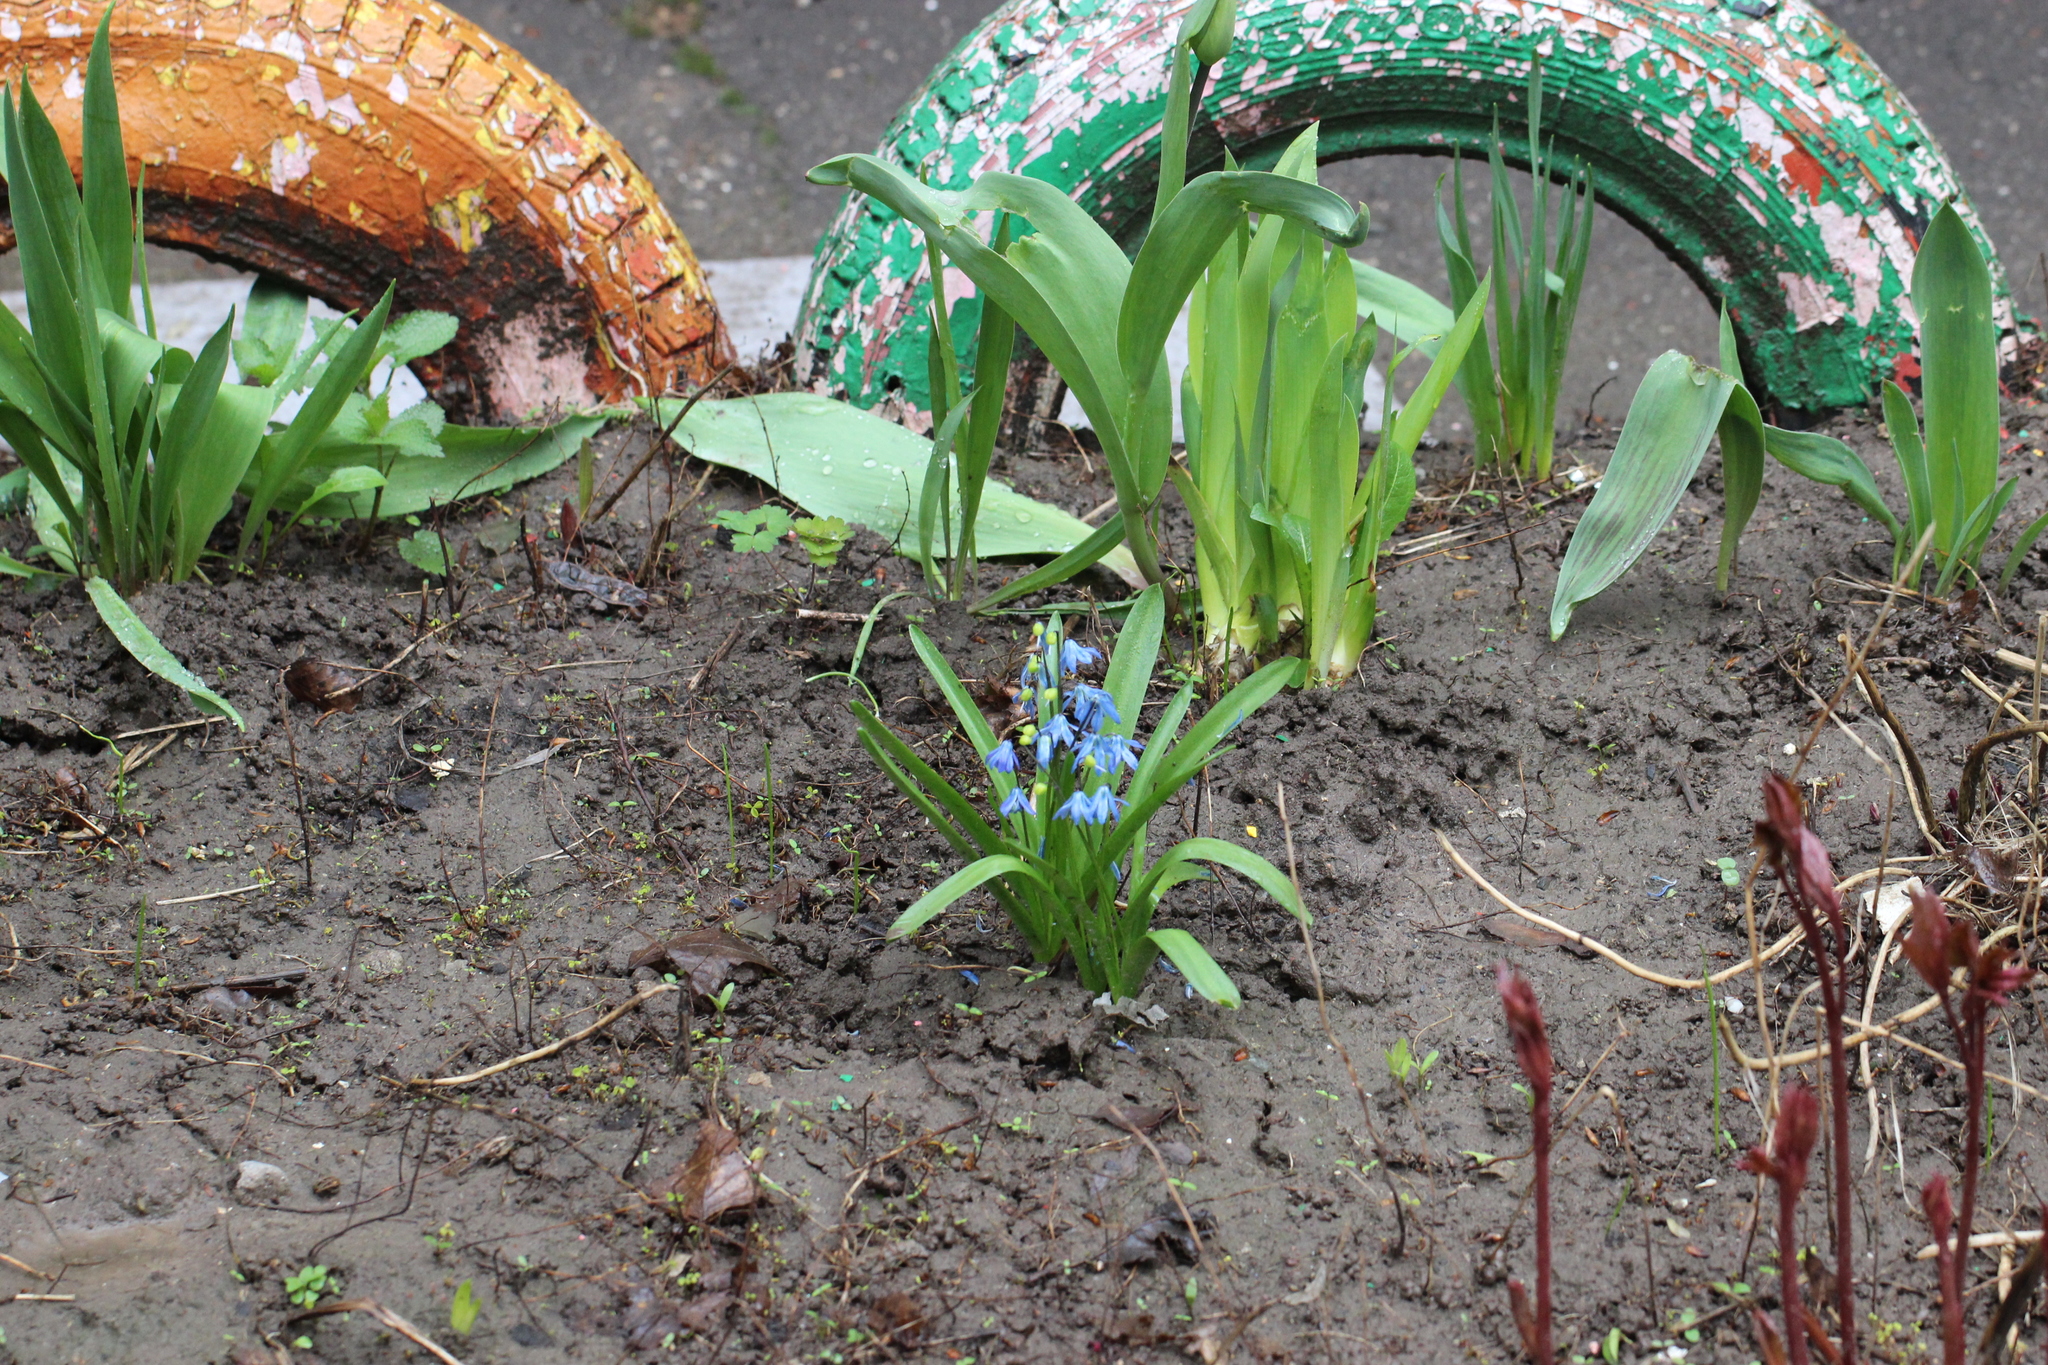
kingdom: Plantae
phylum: Tracheophyta
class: Liliopsida
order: Asparagales
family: Asparagaceae
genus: Scilla
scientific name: Scilla siberica
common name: Siberian squill
